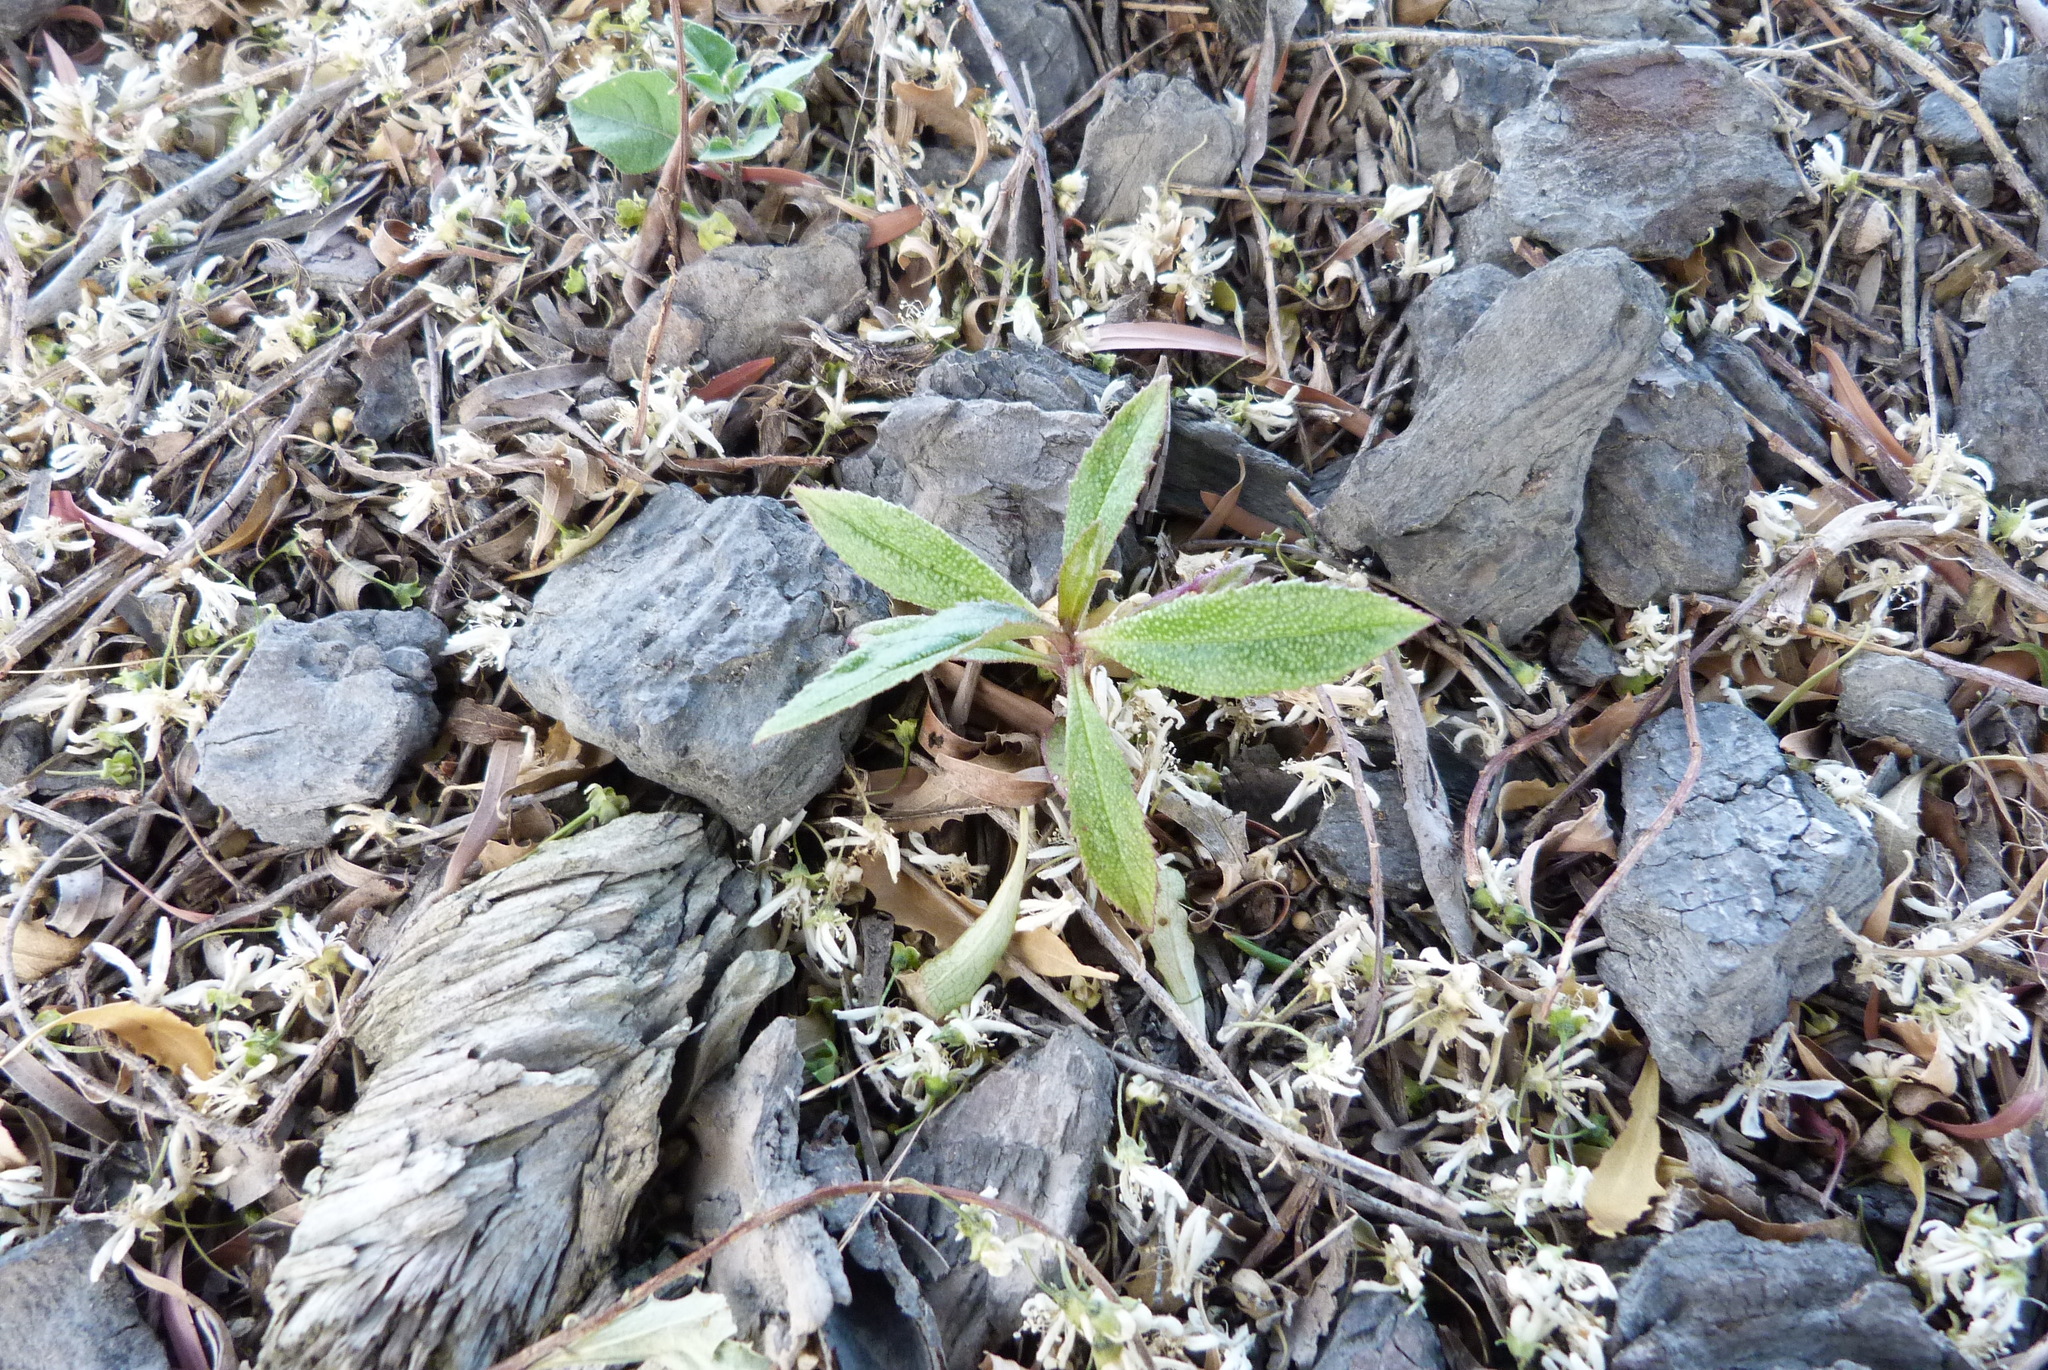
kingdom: Plantae
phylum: Tracheophyta
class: Magnoliopsida
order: Lamiales
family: Scrophulariaceae
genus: Myoporum
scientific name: Myoporum laetum
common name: Ngaio tree
